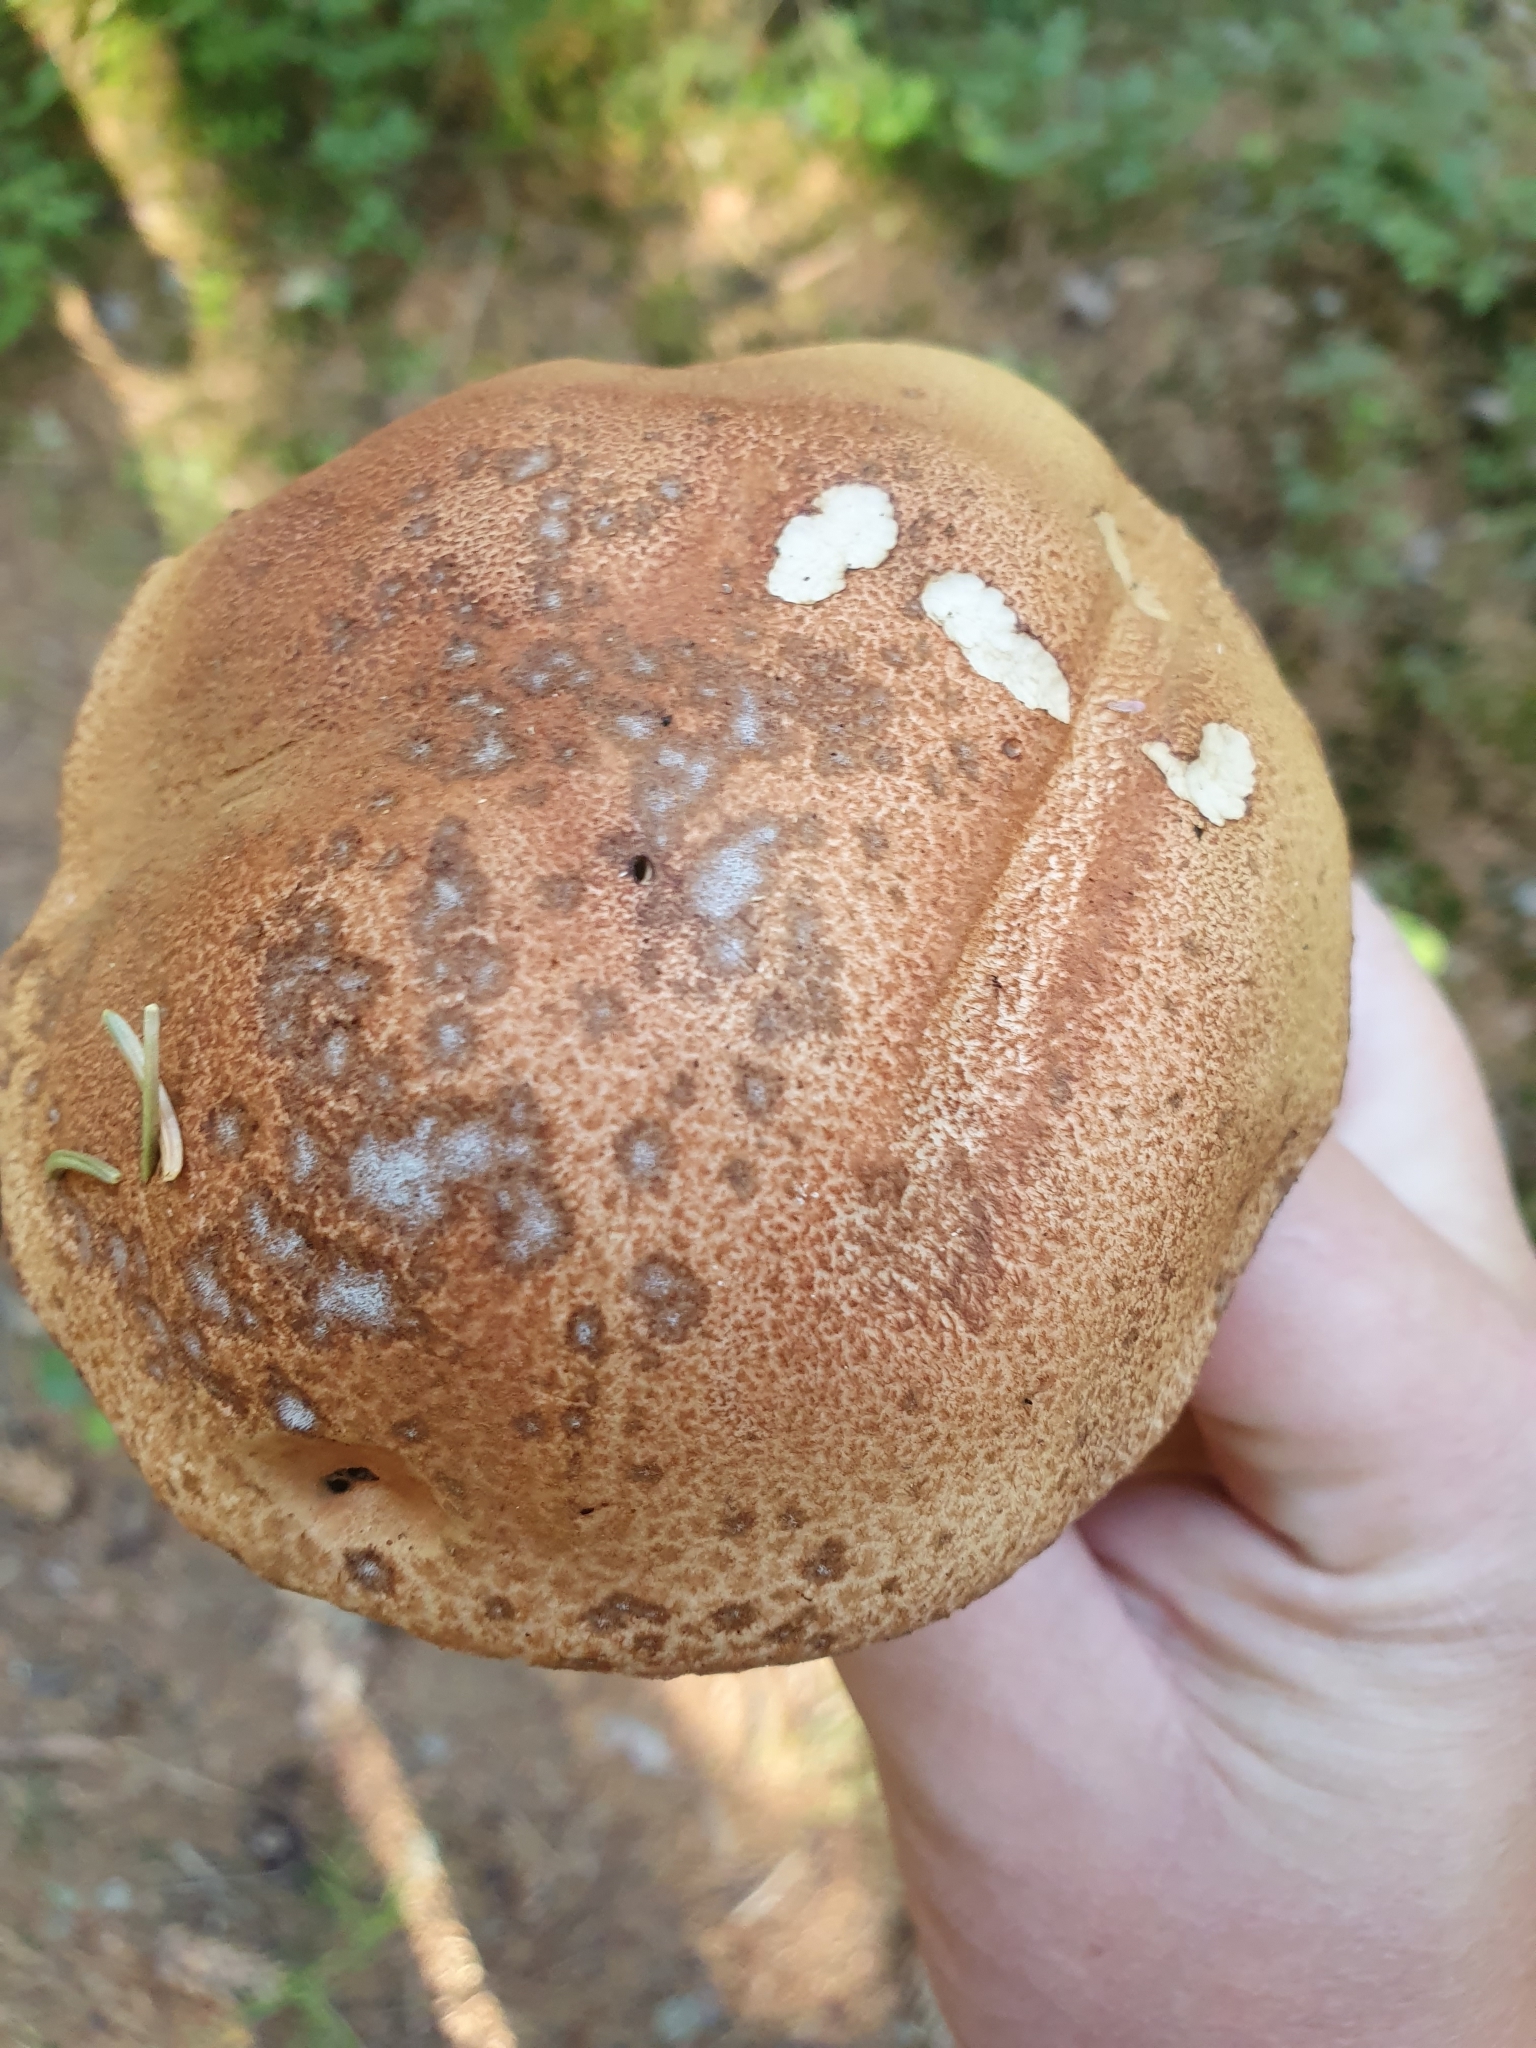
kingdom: Fungi
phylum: Basidiomycota
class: Agaricomycetes
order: Boletales
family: Boletaceae
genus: Leccinum
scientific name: Leccinum aurantiacum
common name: Orange bolete
